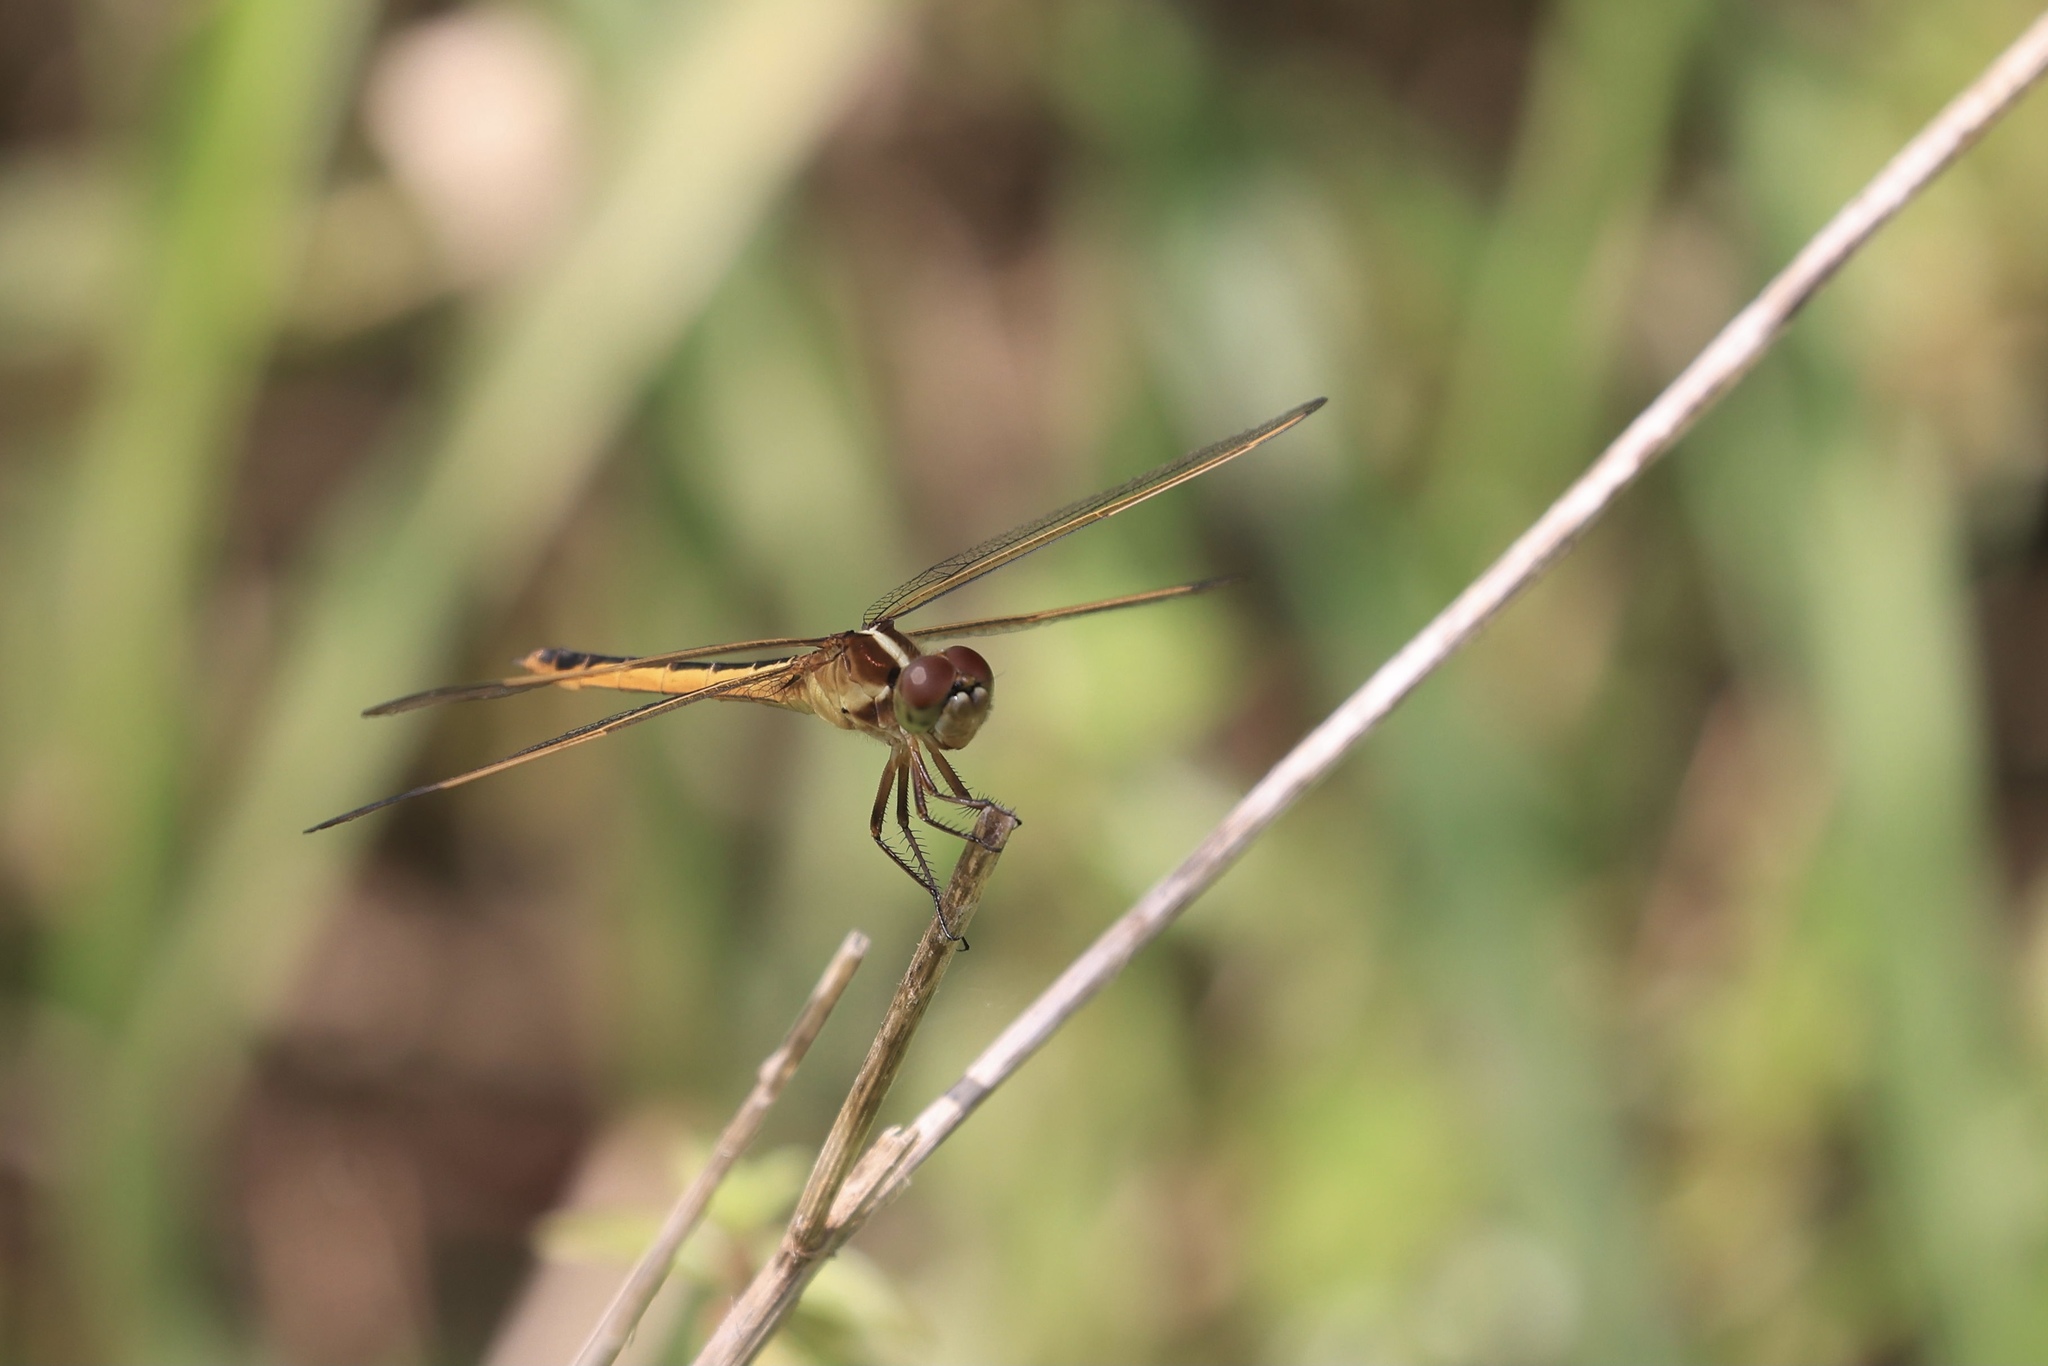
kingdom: Animalia
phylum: Arthropoda
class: Insecta
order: Odonata
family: Libellulidae
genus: Libellula
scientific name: Libellula needhami
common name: Needham's skimmer
